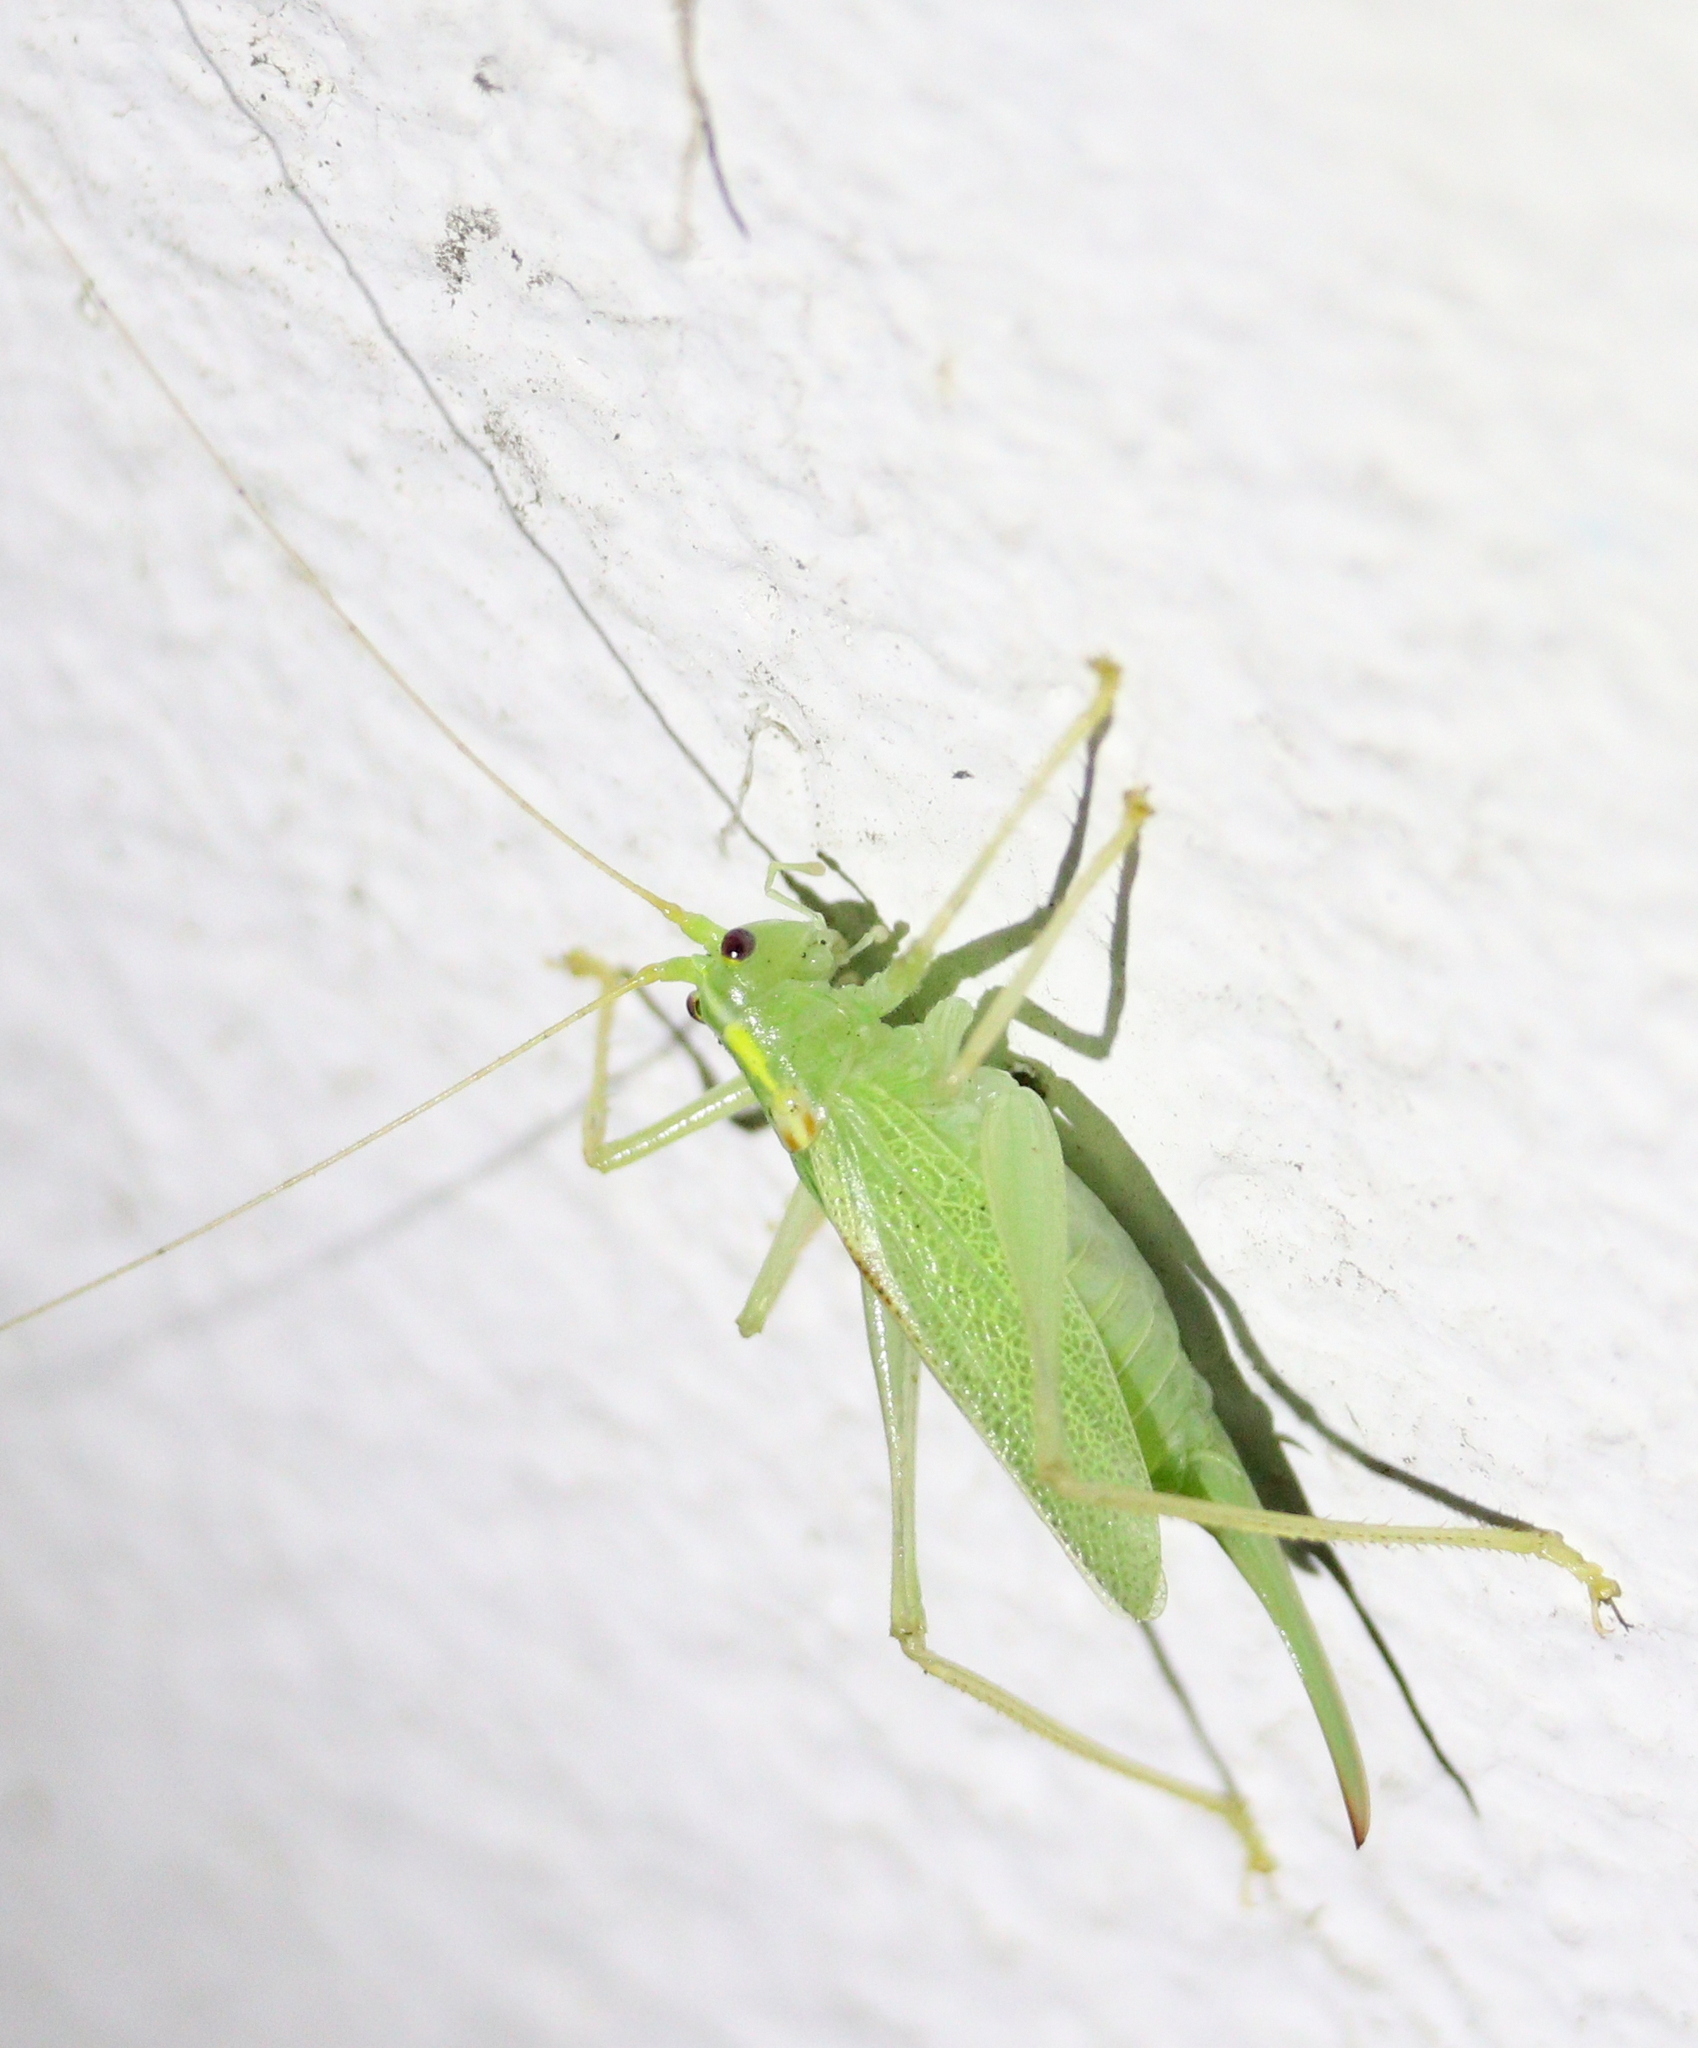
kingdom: Animalia
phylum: Arthropoda
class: Insecta
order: Orthoptera
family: Tettigoniidae
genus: Meconema
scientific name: Meconema thalassinum
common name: Oak bush-cricket
